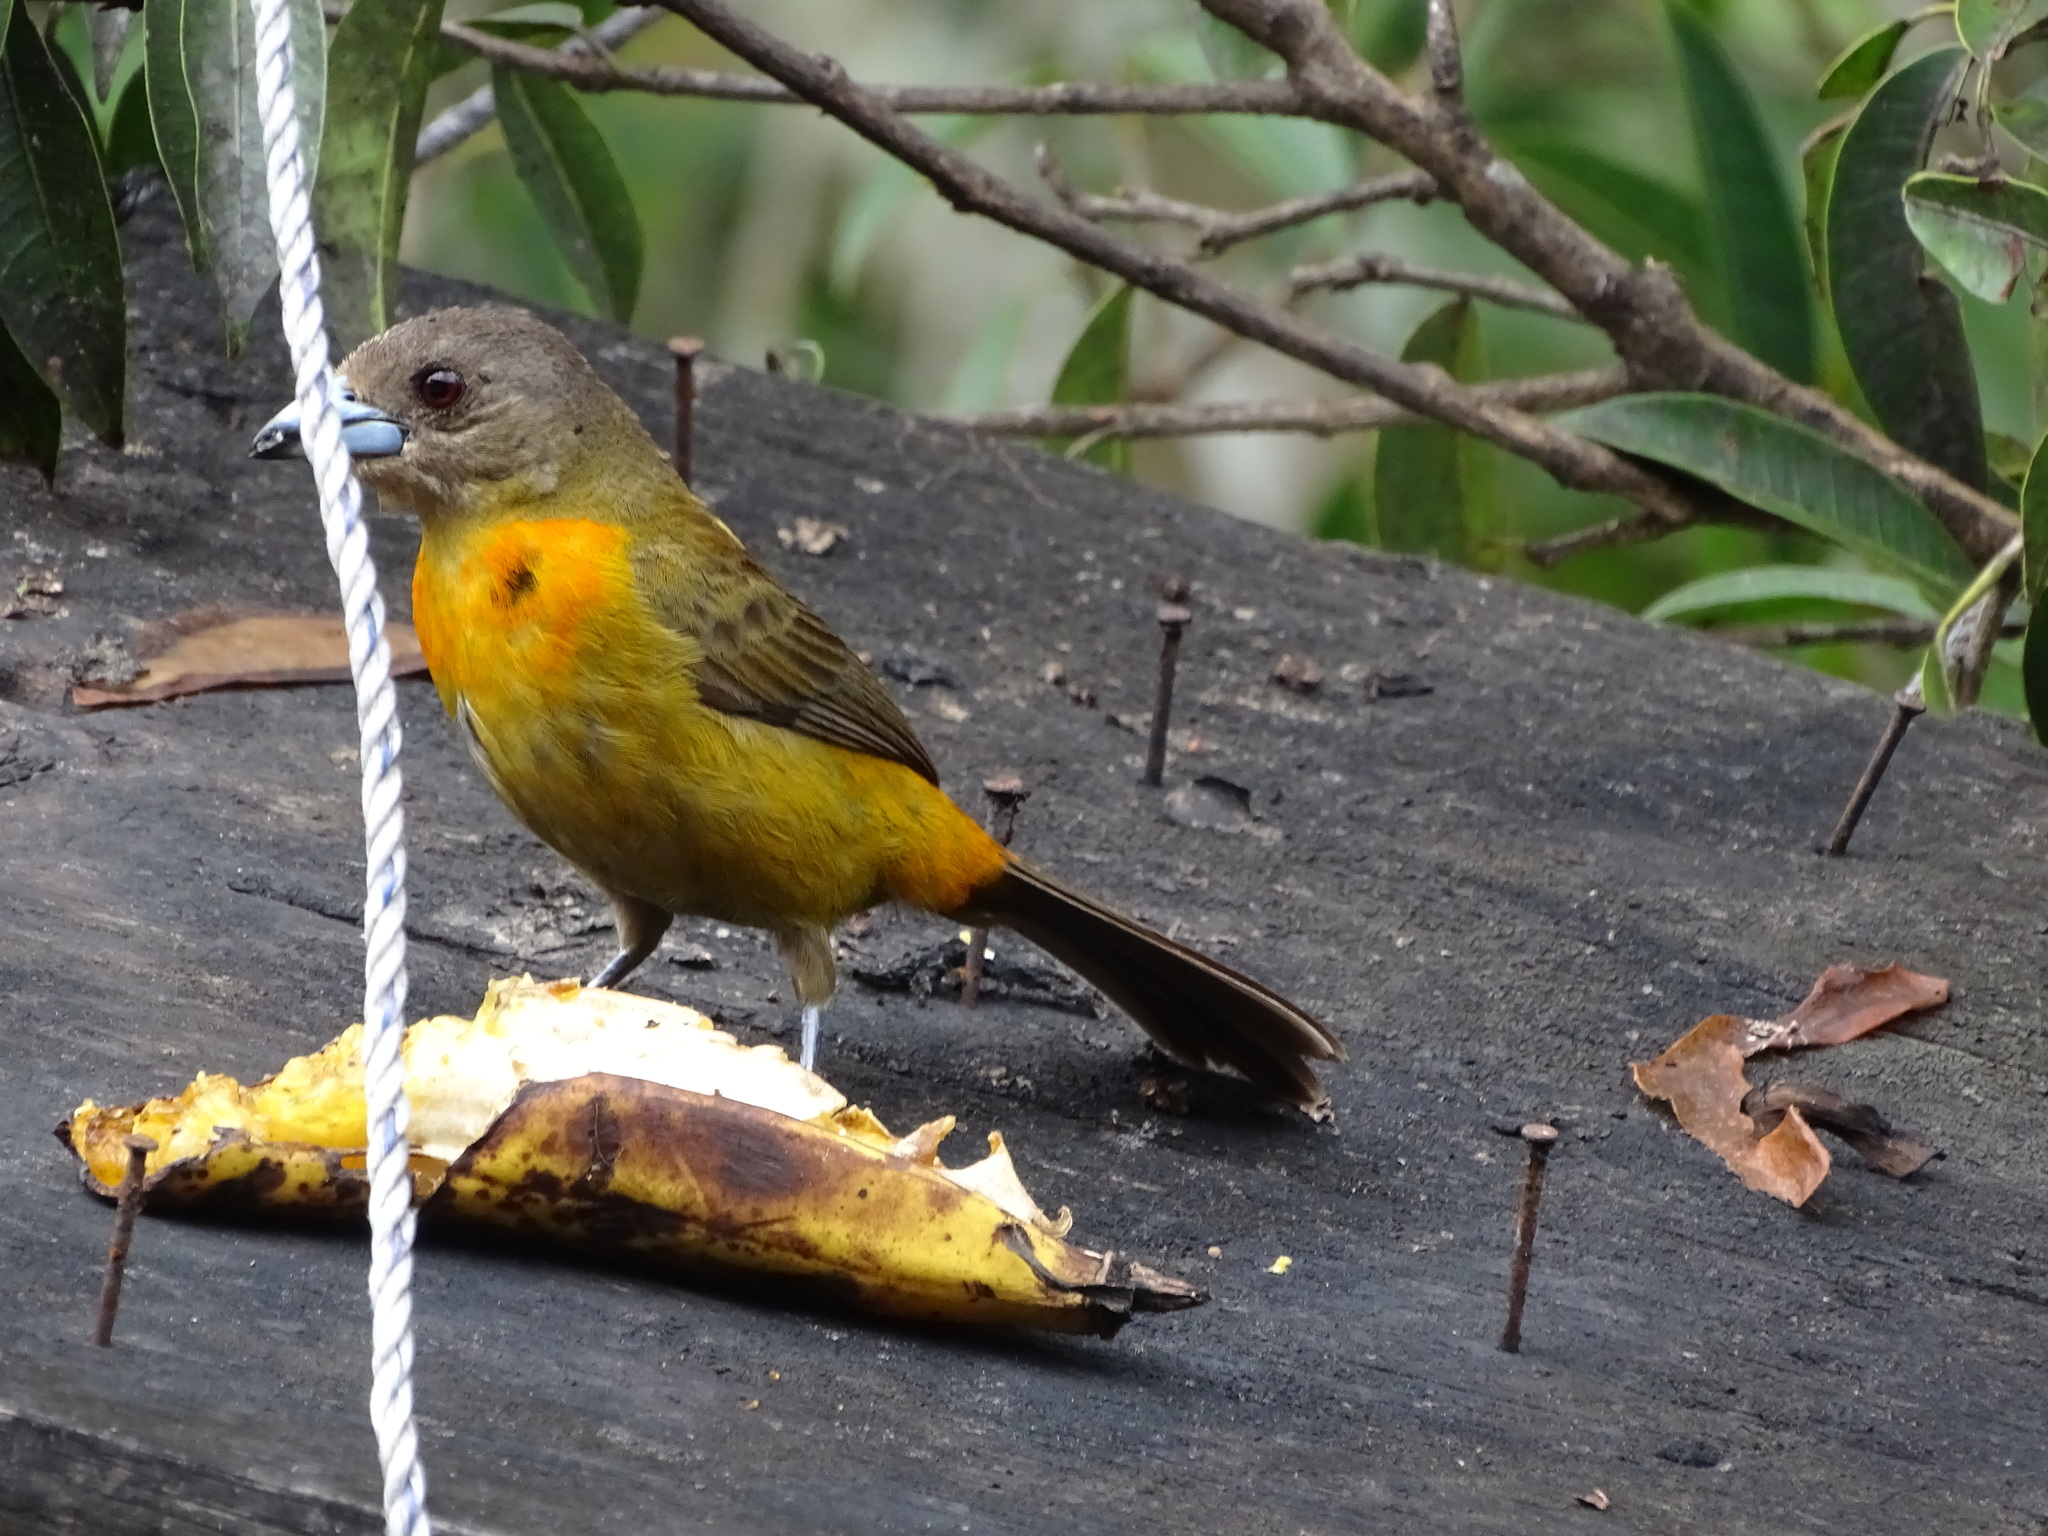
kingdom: Animalia
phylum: Chordata
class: Aves
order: Passeriformes
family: Thraupidae
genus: Ramphocelus
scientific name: Ramphocelus passerinii
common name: Passerini's tanager
